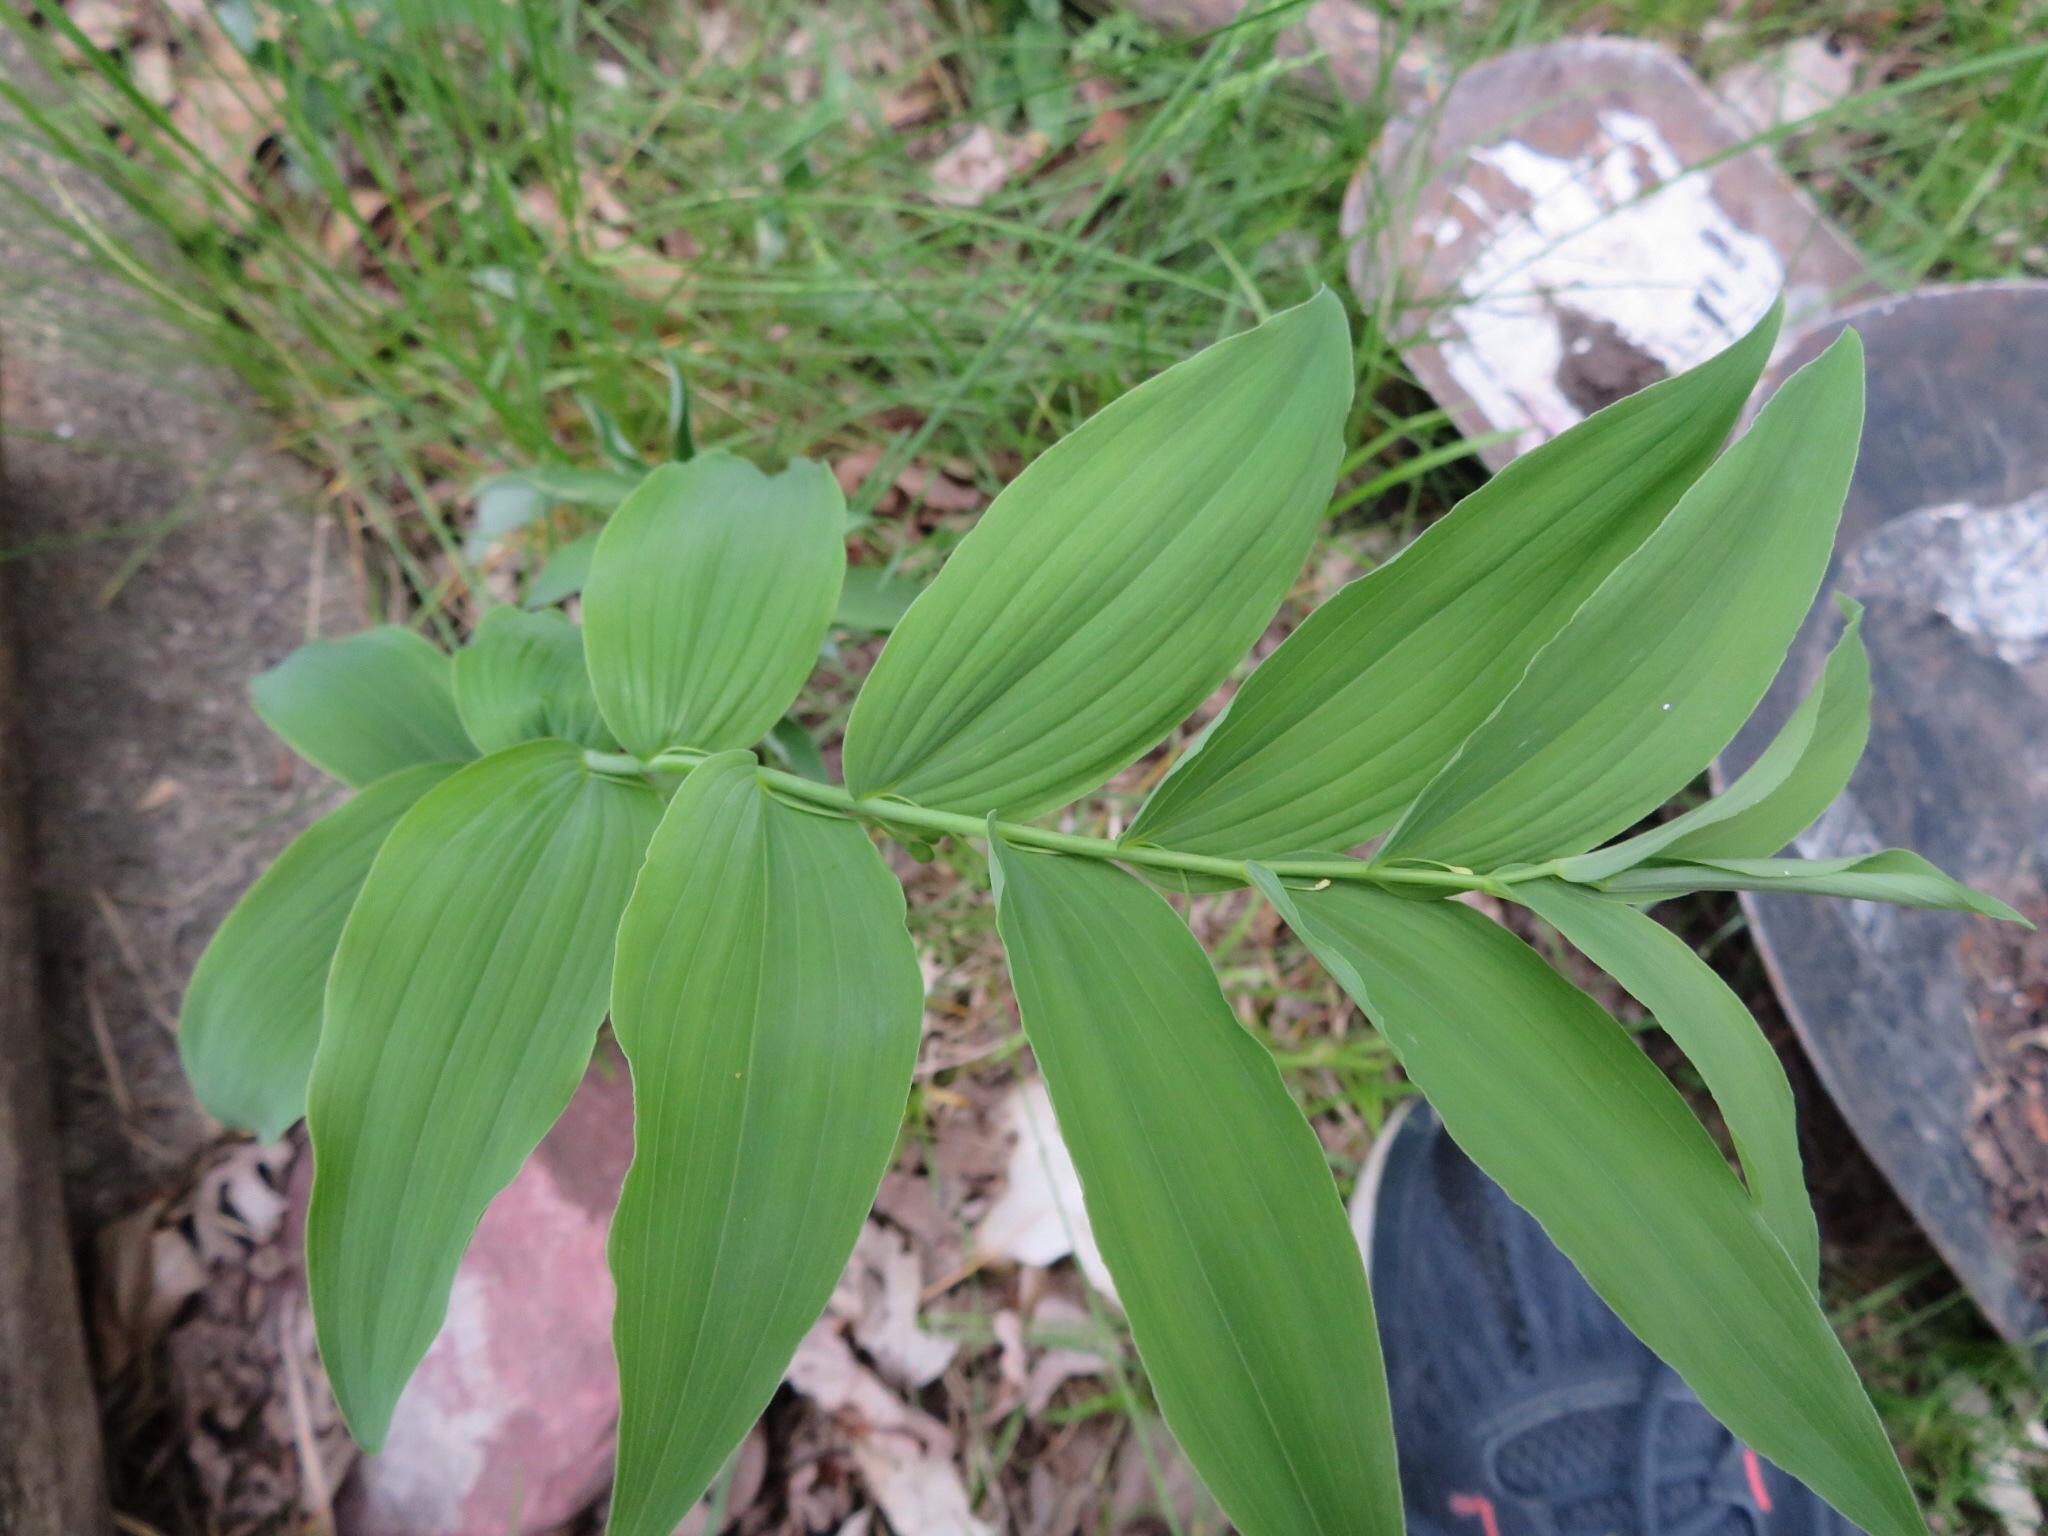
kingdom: Plantae
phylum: Tracheophyta
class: Liliopsida
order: Asparagales
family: Asparagaceae
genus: Polygonatum
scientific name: Polygonatum biflorum
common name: American solomon's-seal
